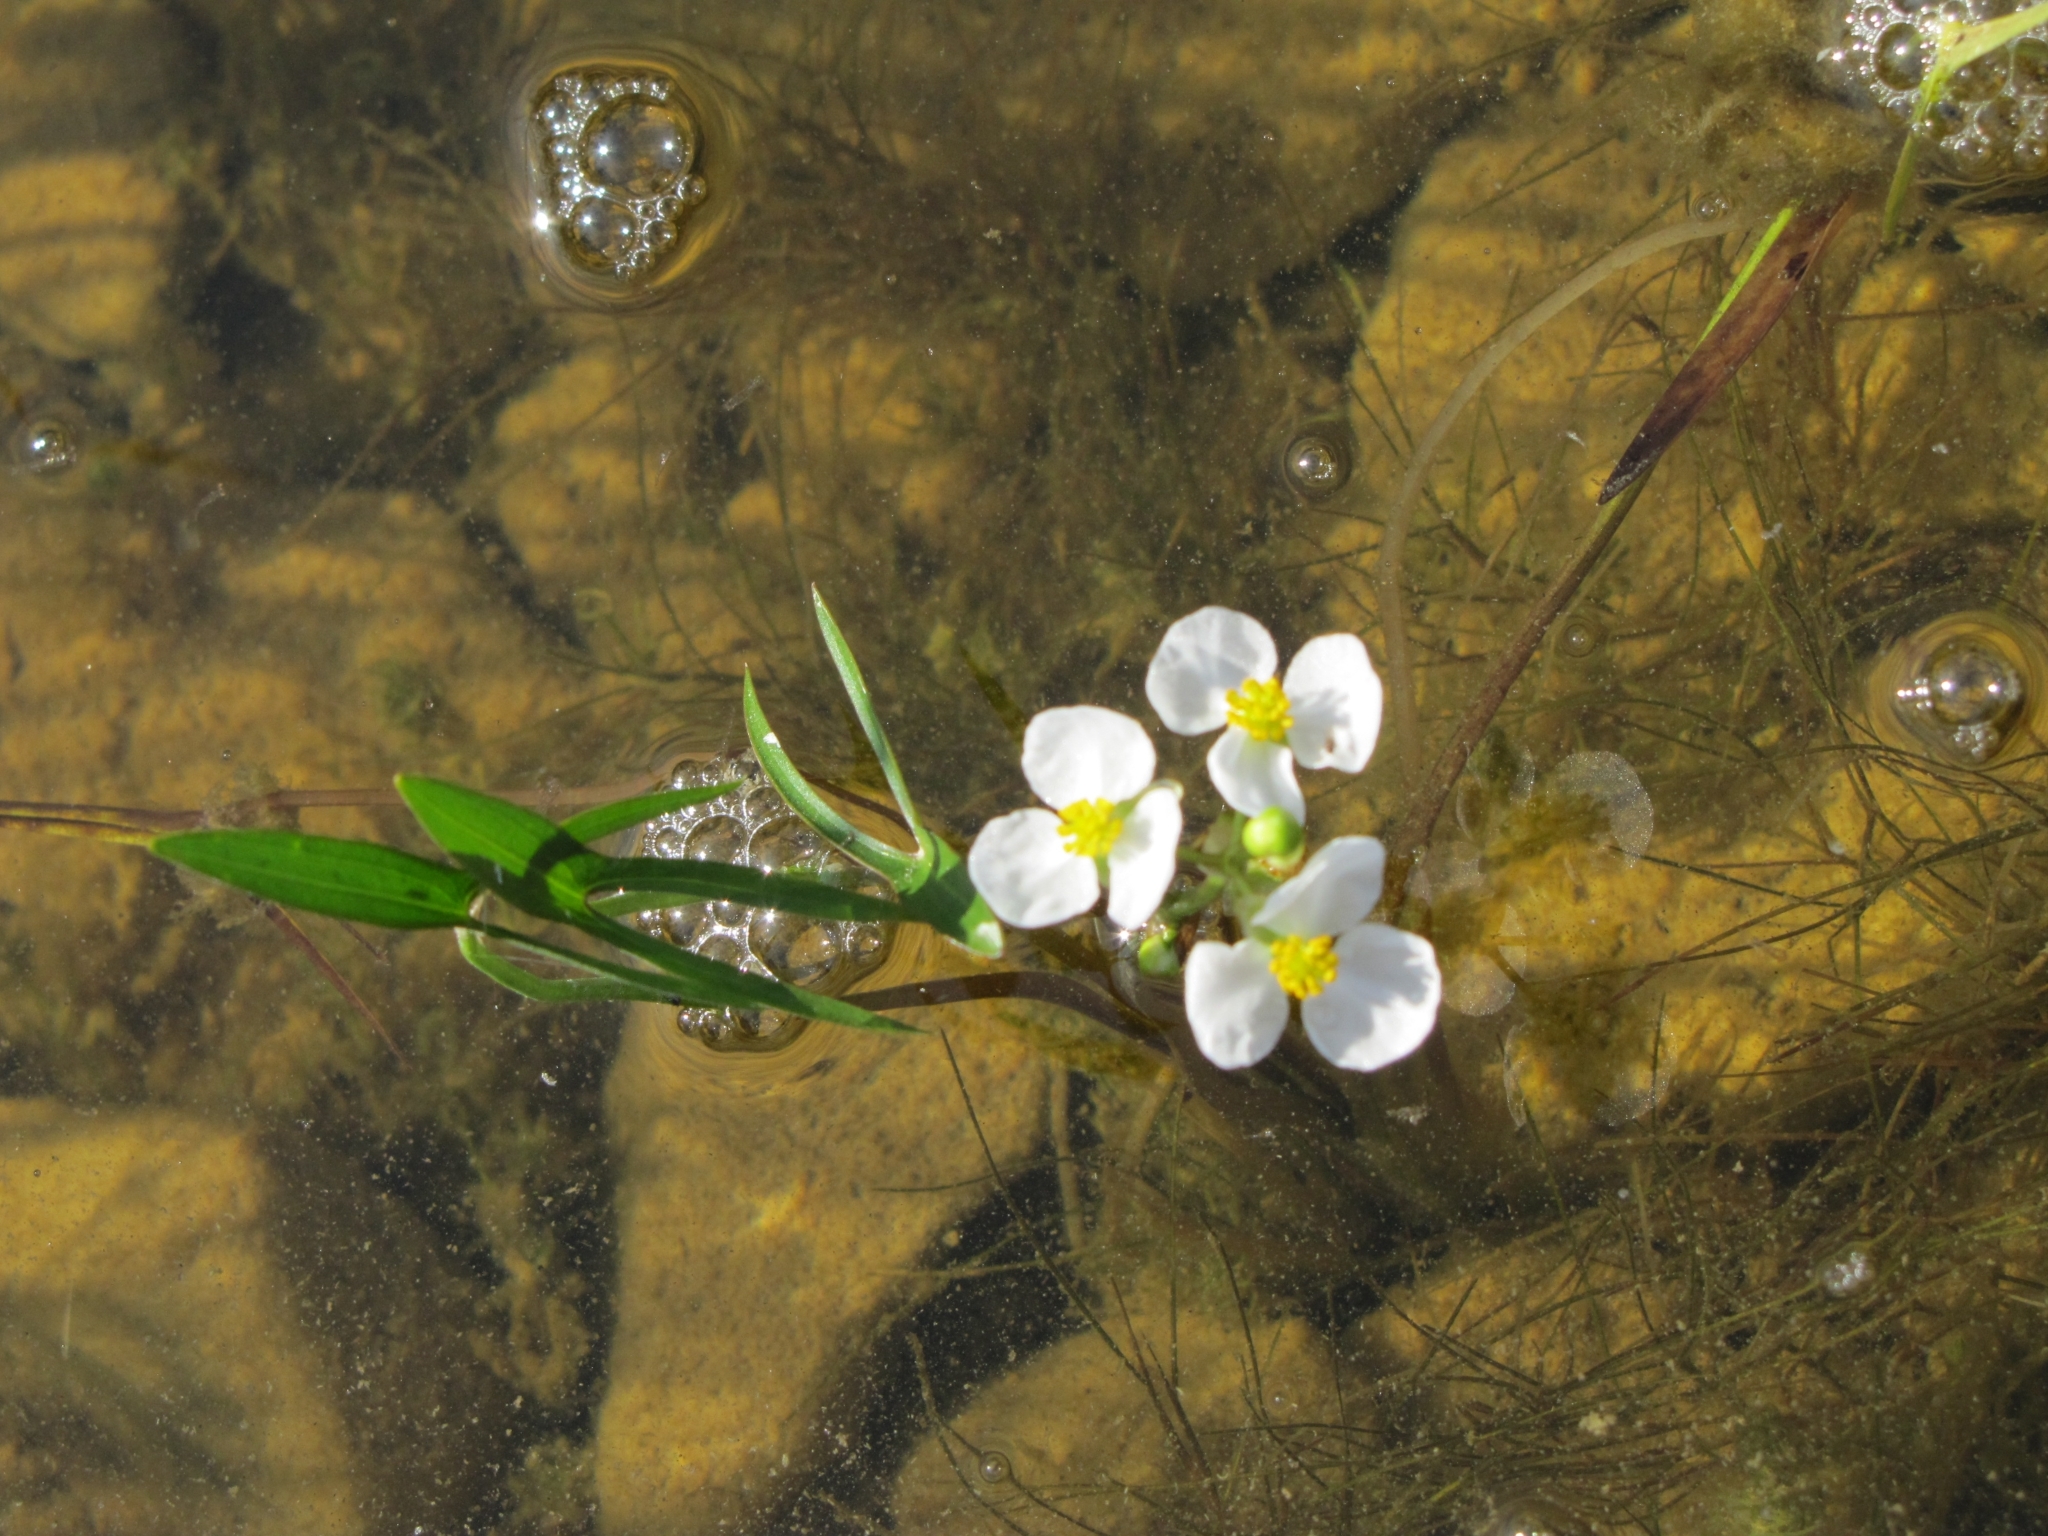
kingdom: Plantae
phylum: Tracheophyta
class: Liliopsida
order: Alismatales
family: Alismataceae
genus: Sagittaria
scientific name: Sagittaria latifolia
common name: Duck-potato
